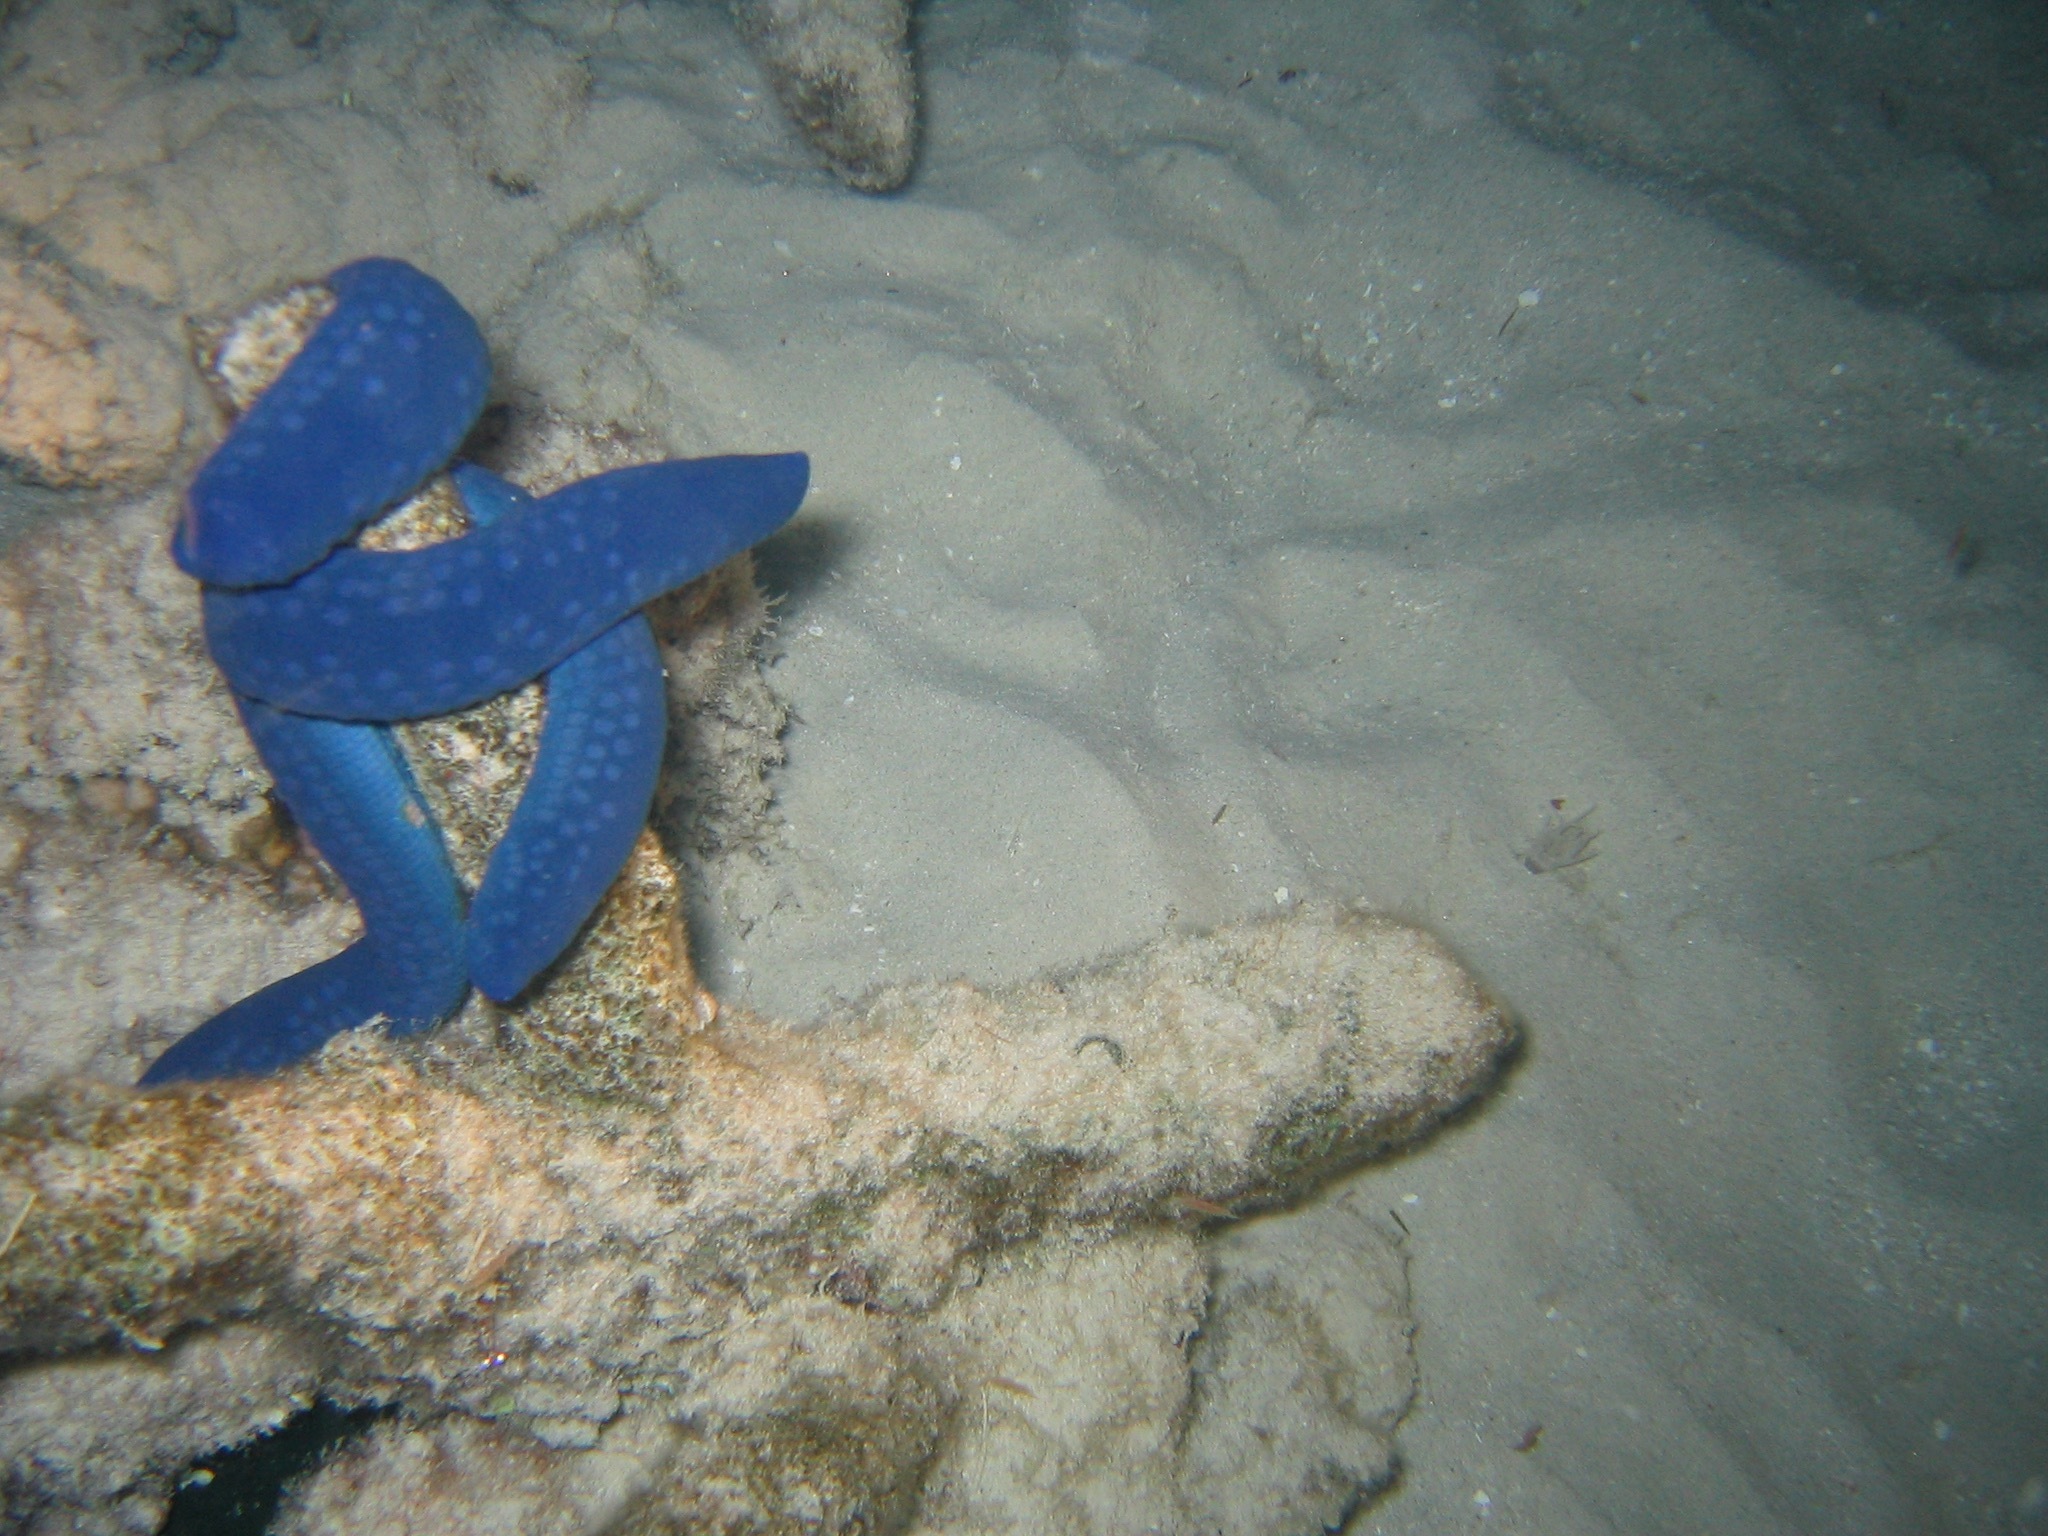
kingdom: Animalia
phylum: Echinodermata
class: Asteroidea
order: Valvatida
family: Ophidiasteridae
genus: Linckia
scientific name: Linckia laevigata
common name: Azure sea star
